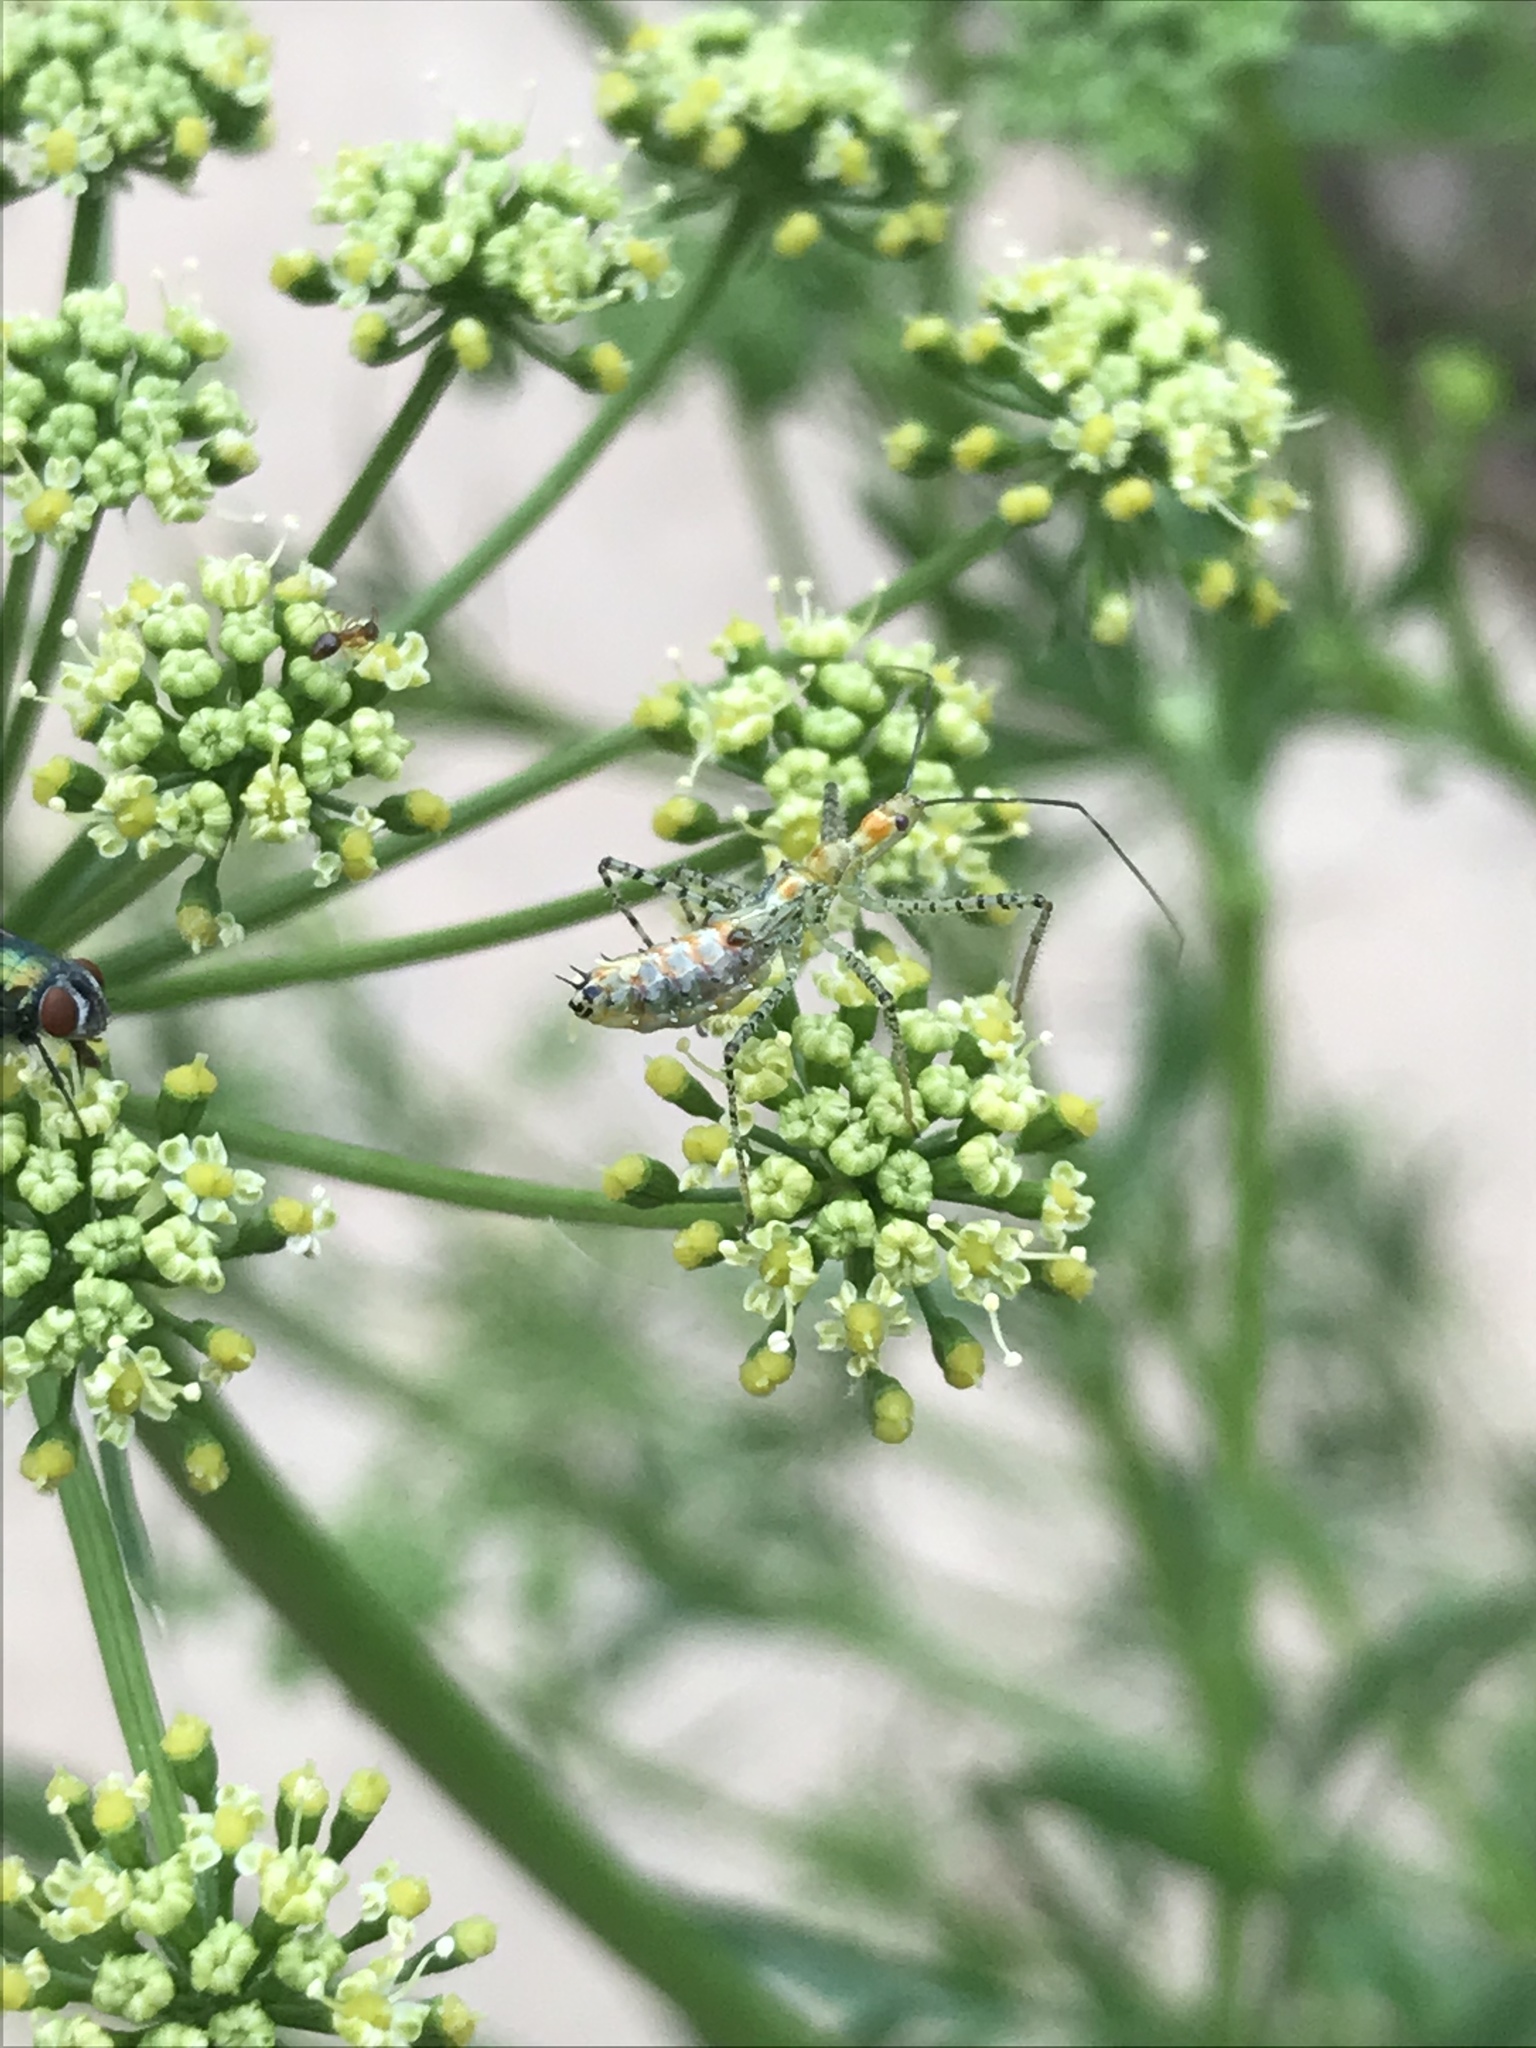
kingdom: Animalia
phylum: Arthropoda
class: Insecta
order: Hemiptera
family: Reduviidae
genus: Zelus
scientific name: Zelus renardii
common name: Assassin bug
